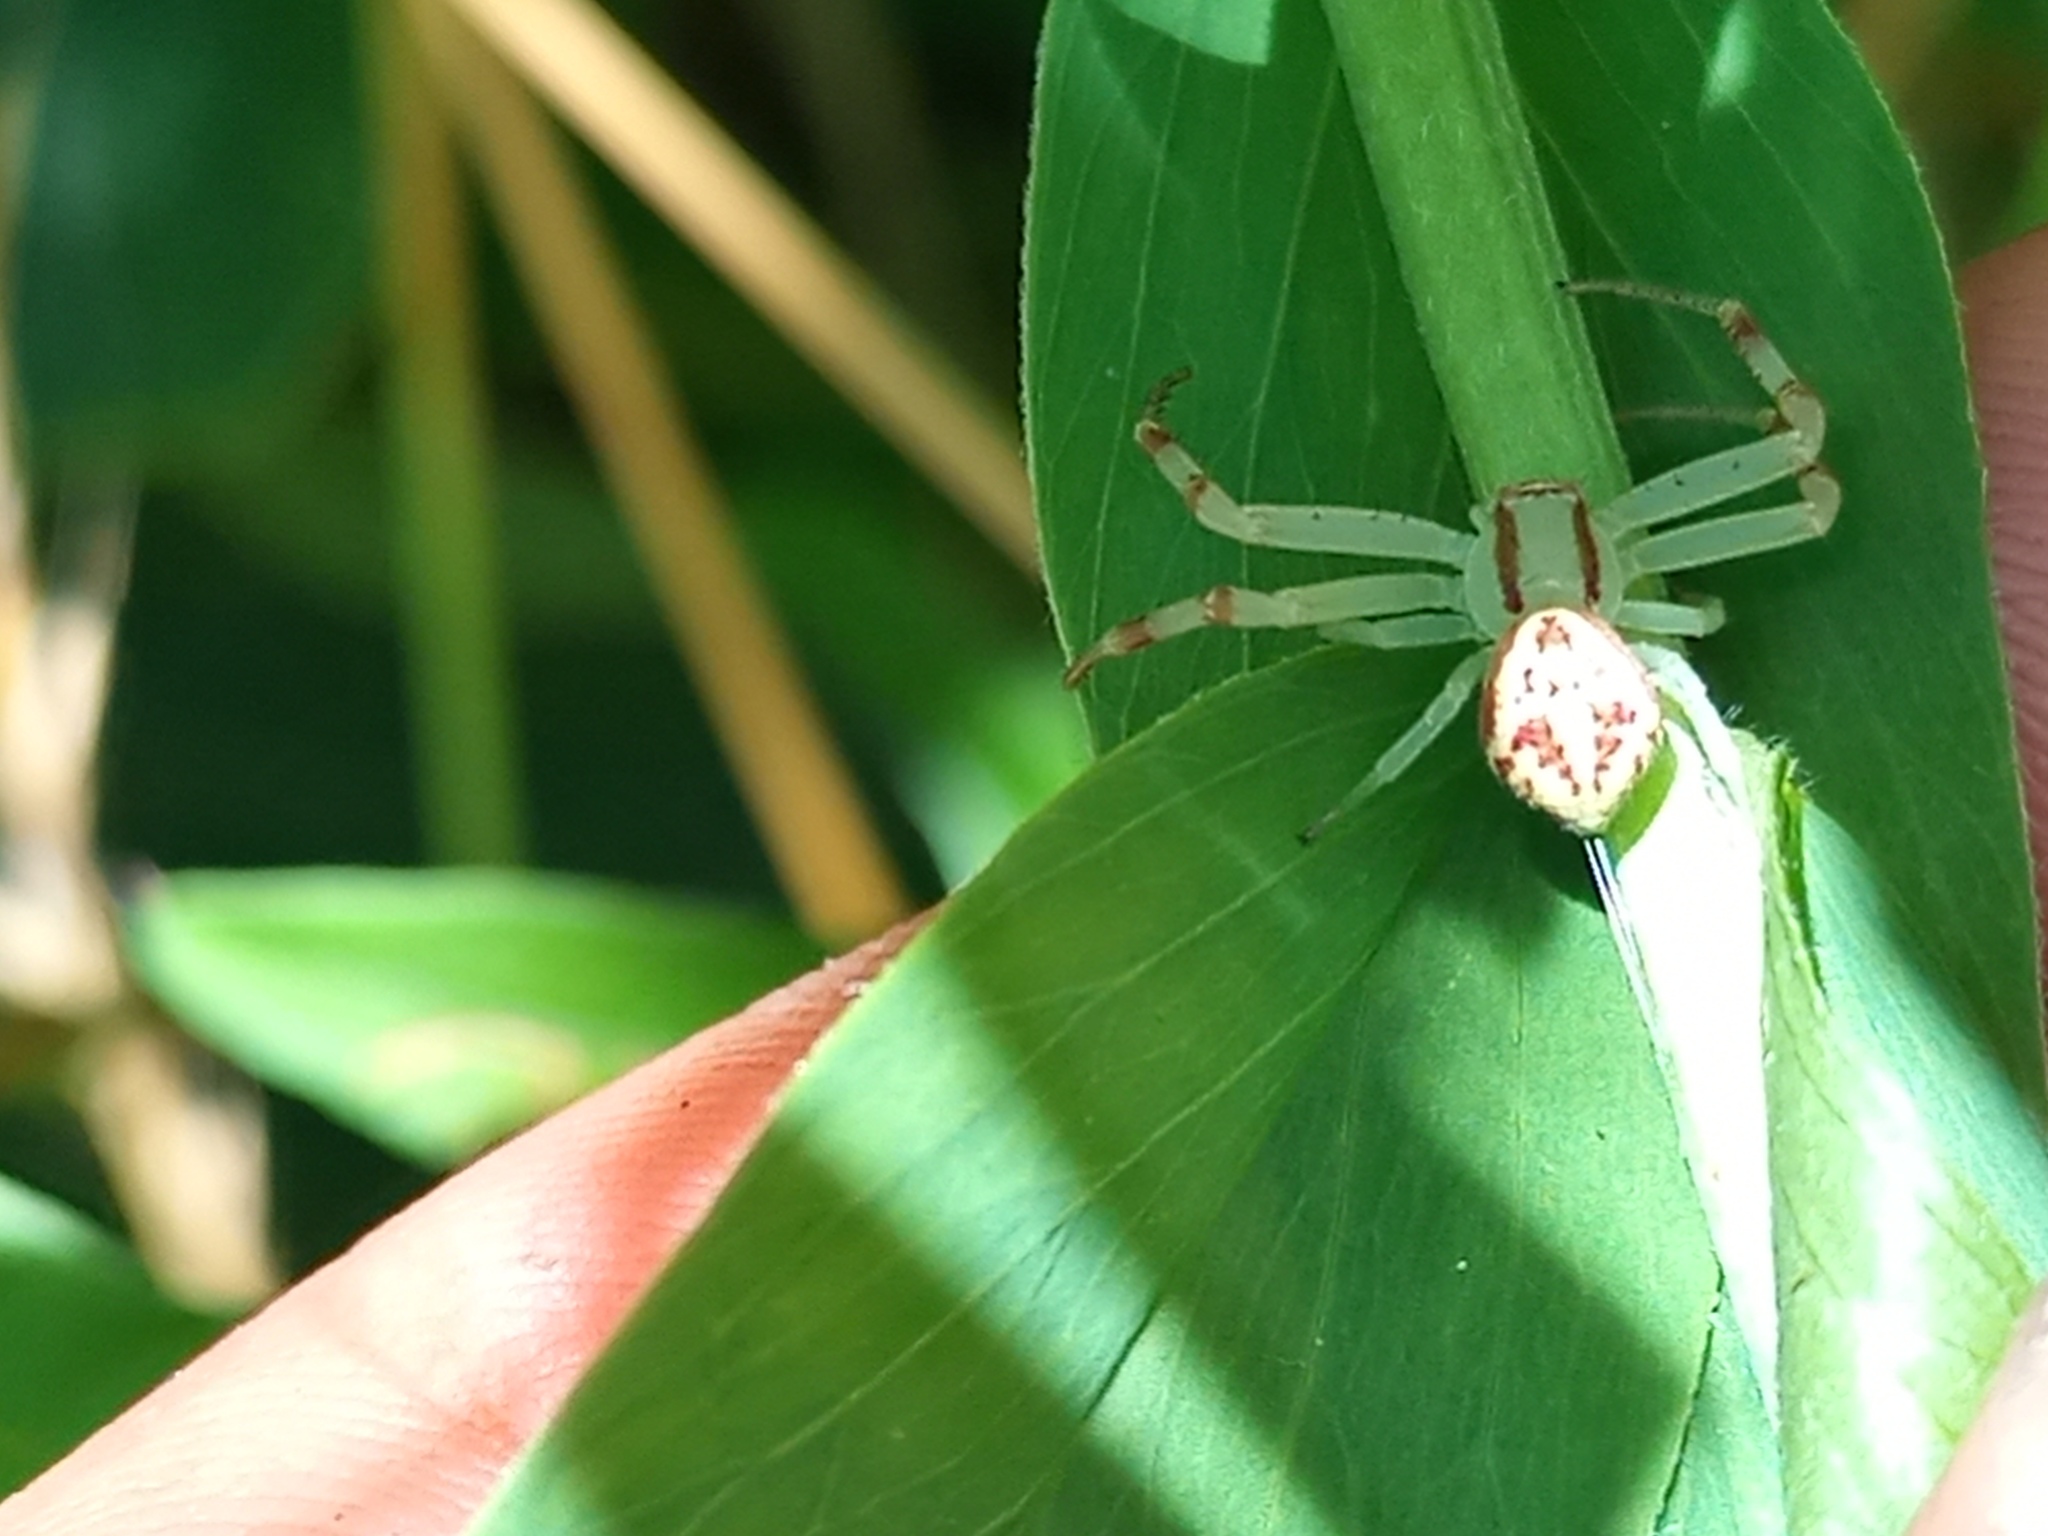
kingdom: Animalia
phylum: Arthropoda
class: Arachnida
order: Araneae
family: Thomisidae
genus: Misumenops
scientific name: Misumenops
